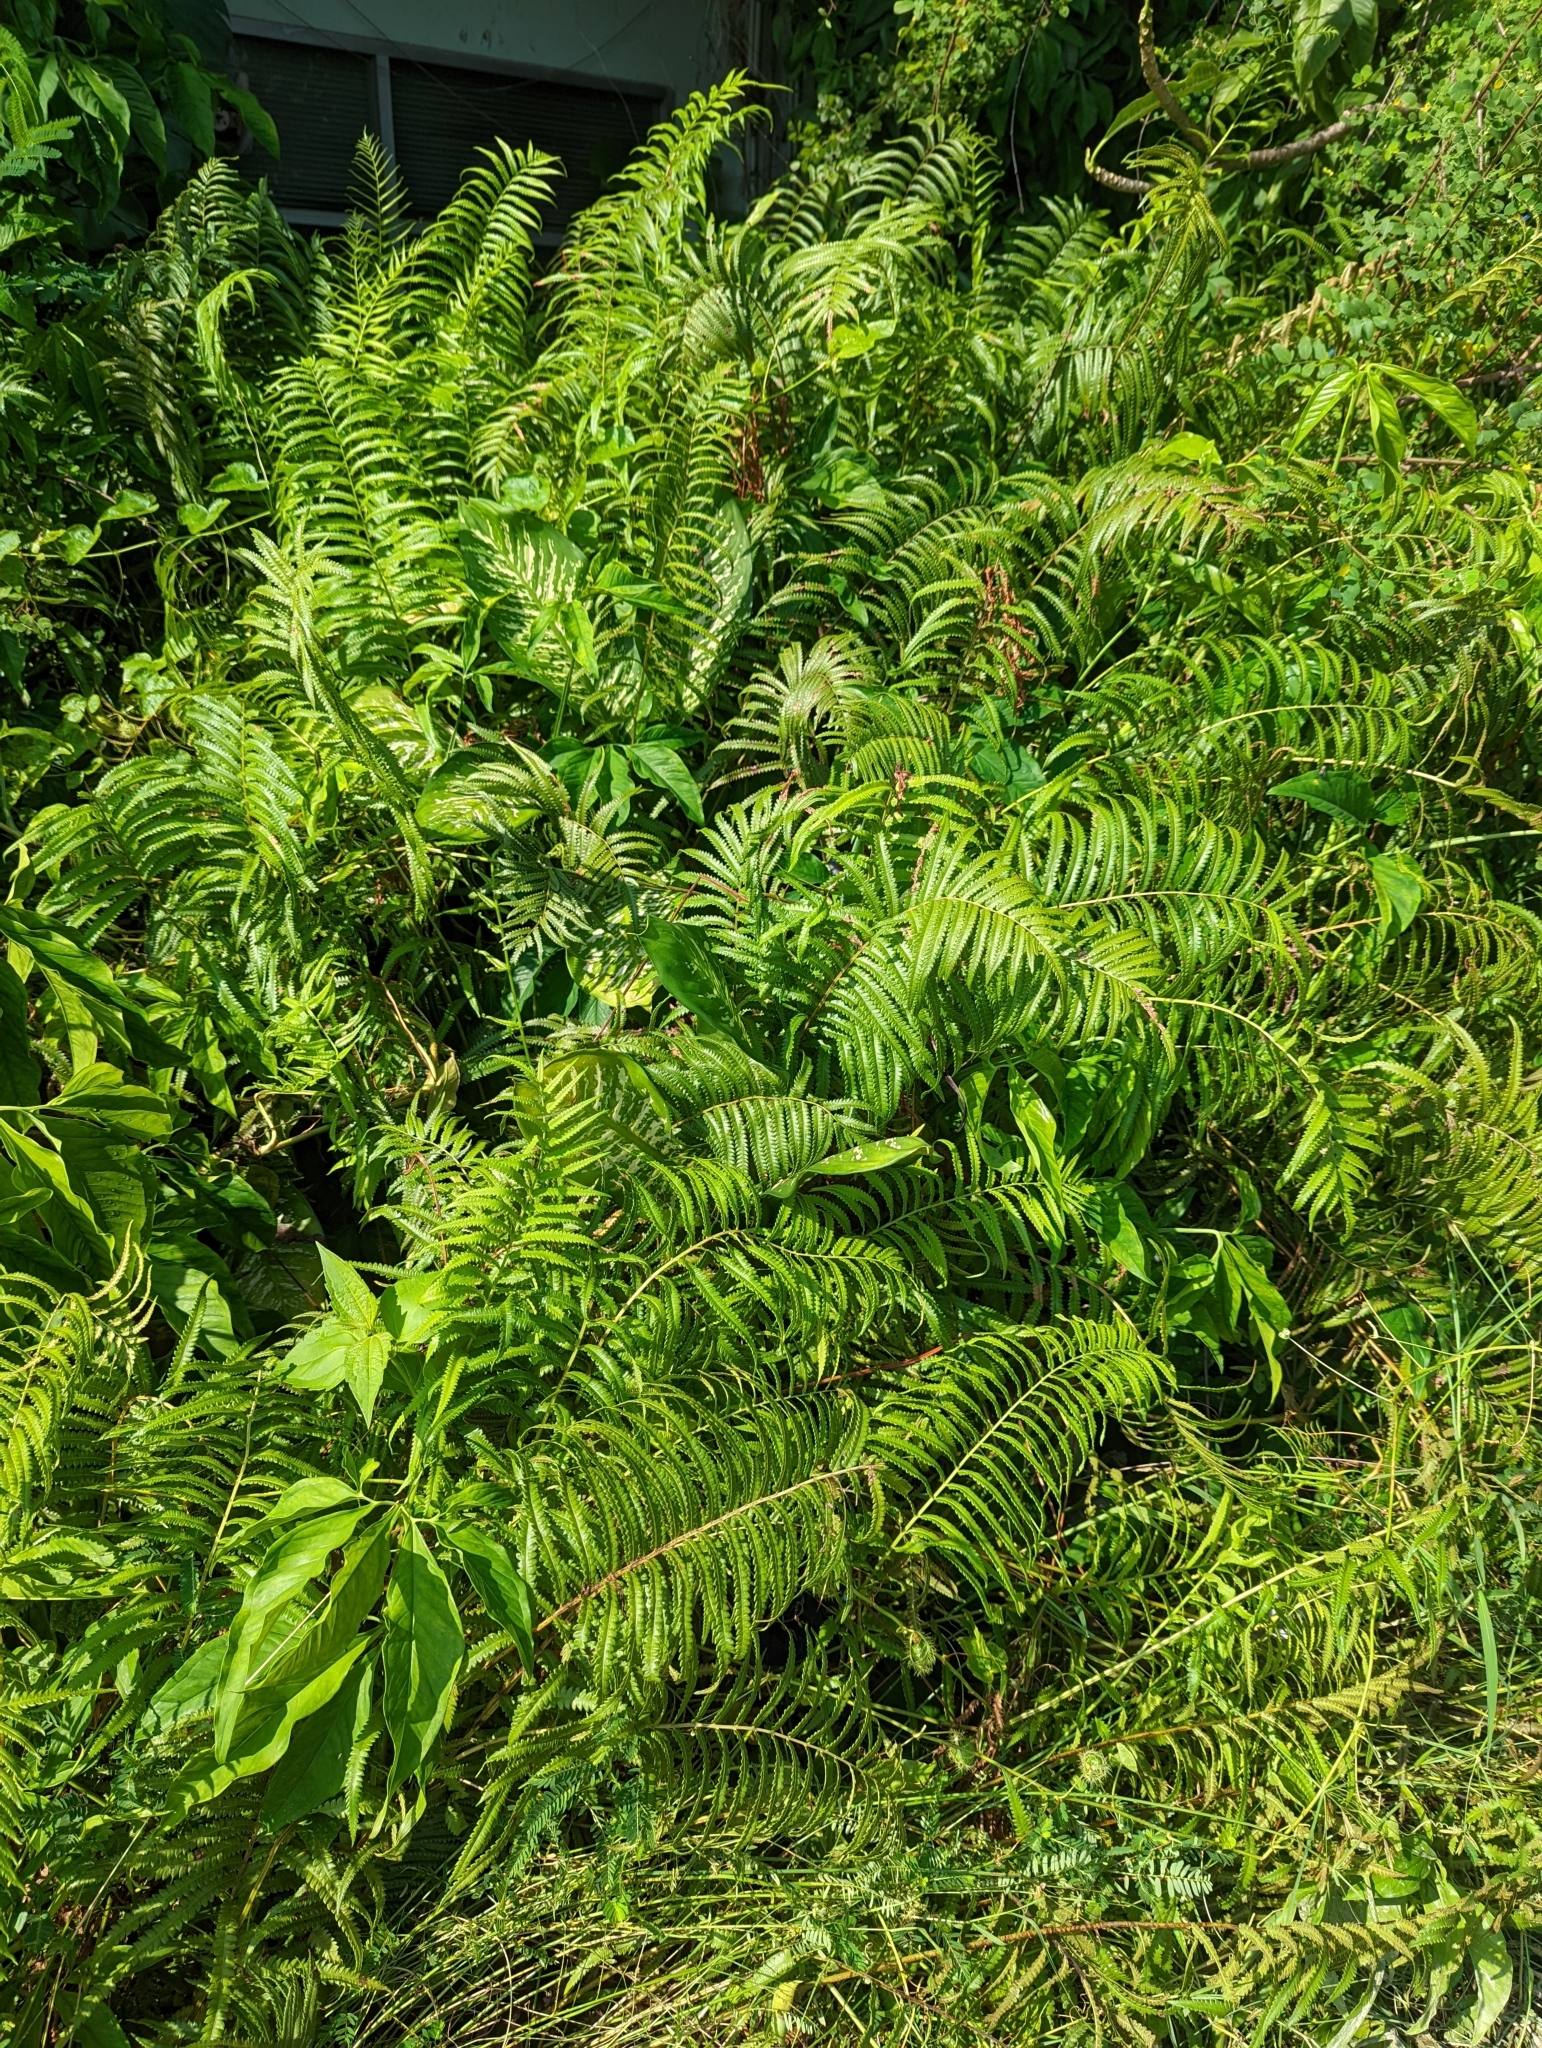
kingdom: Plantae
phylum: Tracheophyta
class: Polypodiopsida
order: Polypodiales
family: Thelypteridaceae
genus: Cyclosorus
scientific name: Cyclosorus interruptus
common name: Neke fern
